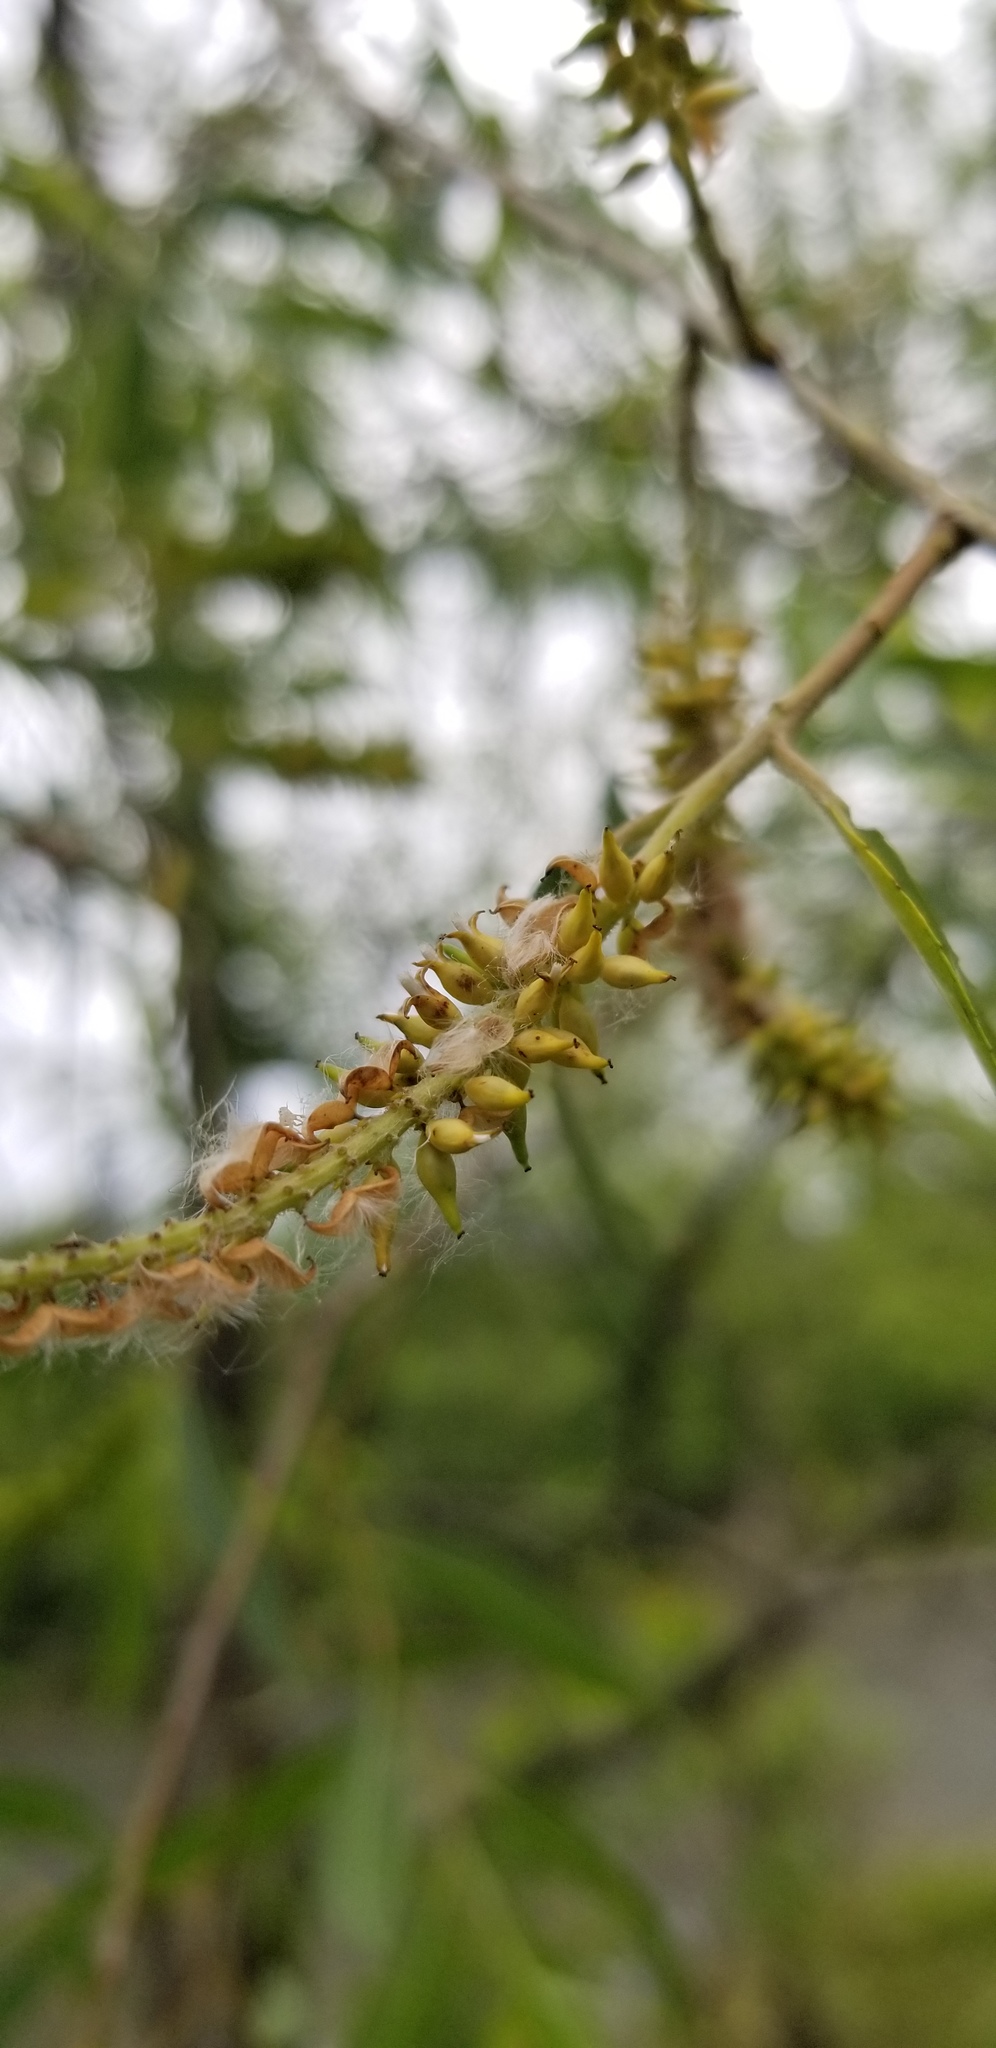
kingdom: Plantae
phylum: Tracheophyta
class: Magnoliopsida
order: Malpighiales
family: Salicaceae
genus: Salix
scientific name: Salix nigra
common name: Black willow
